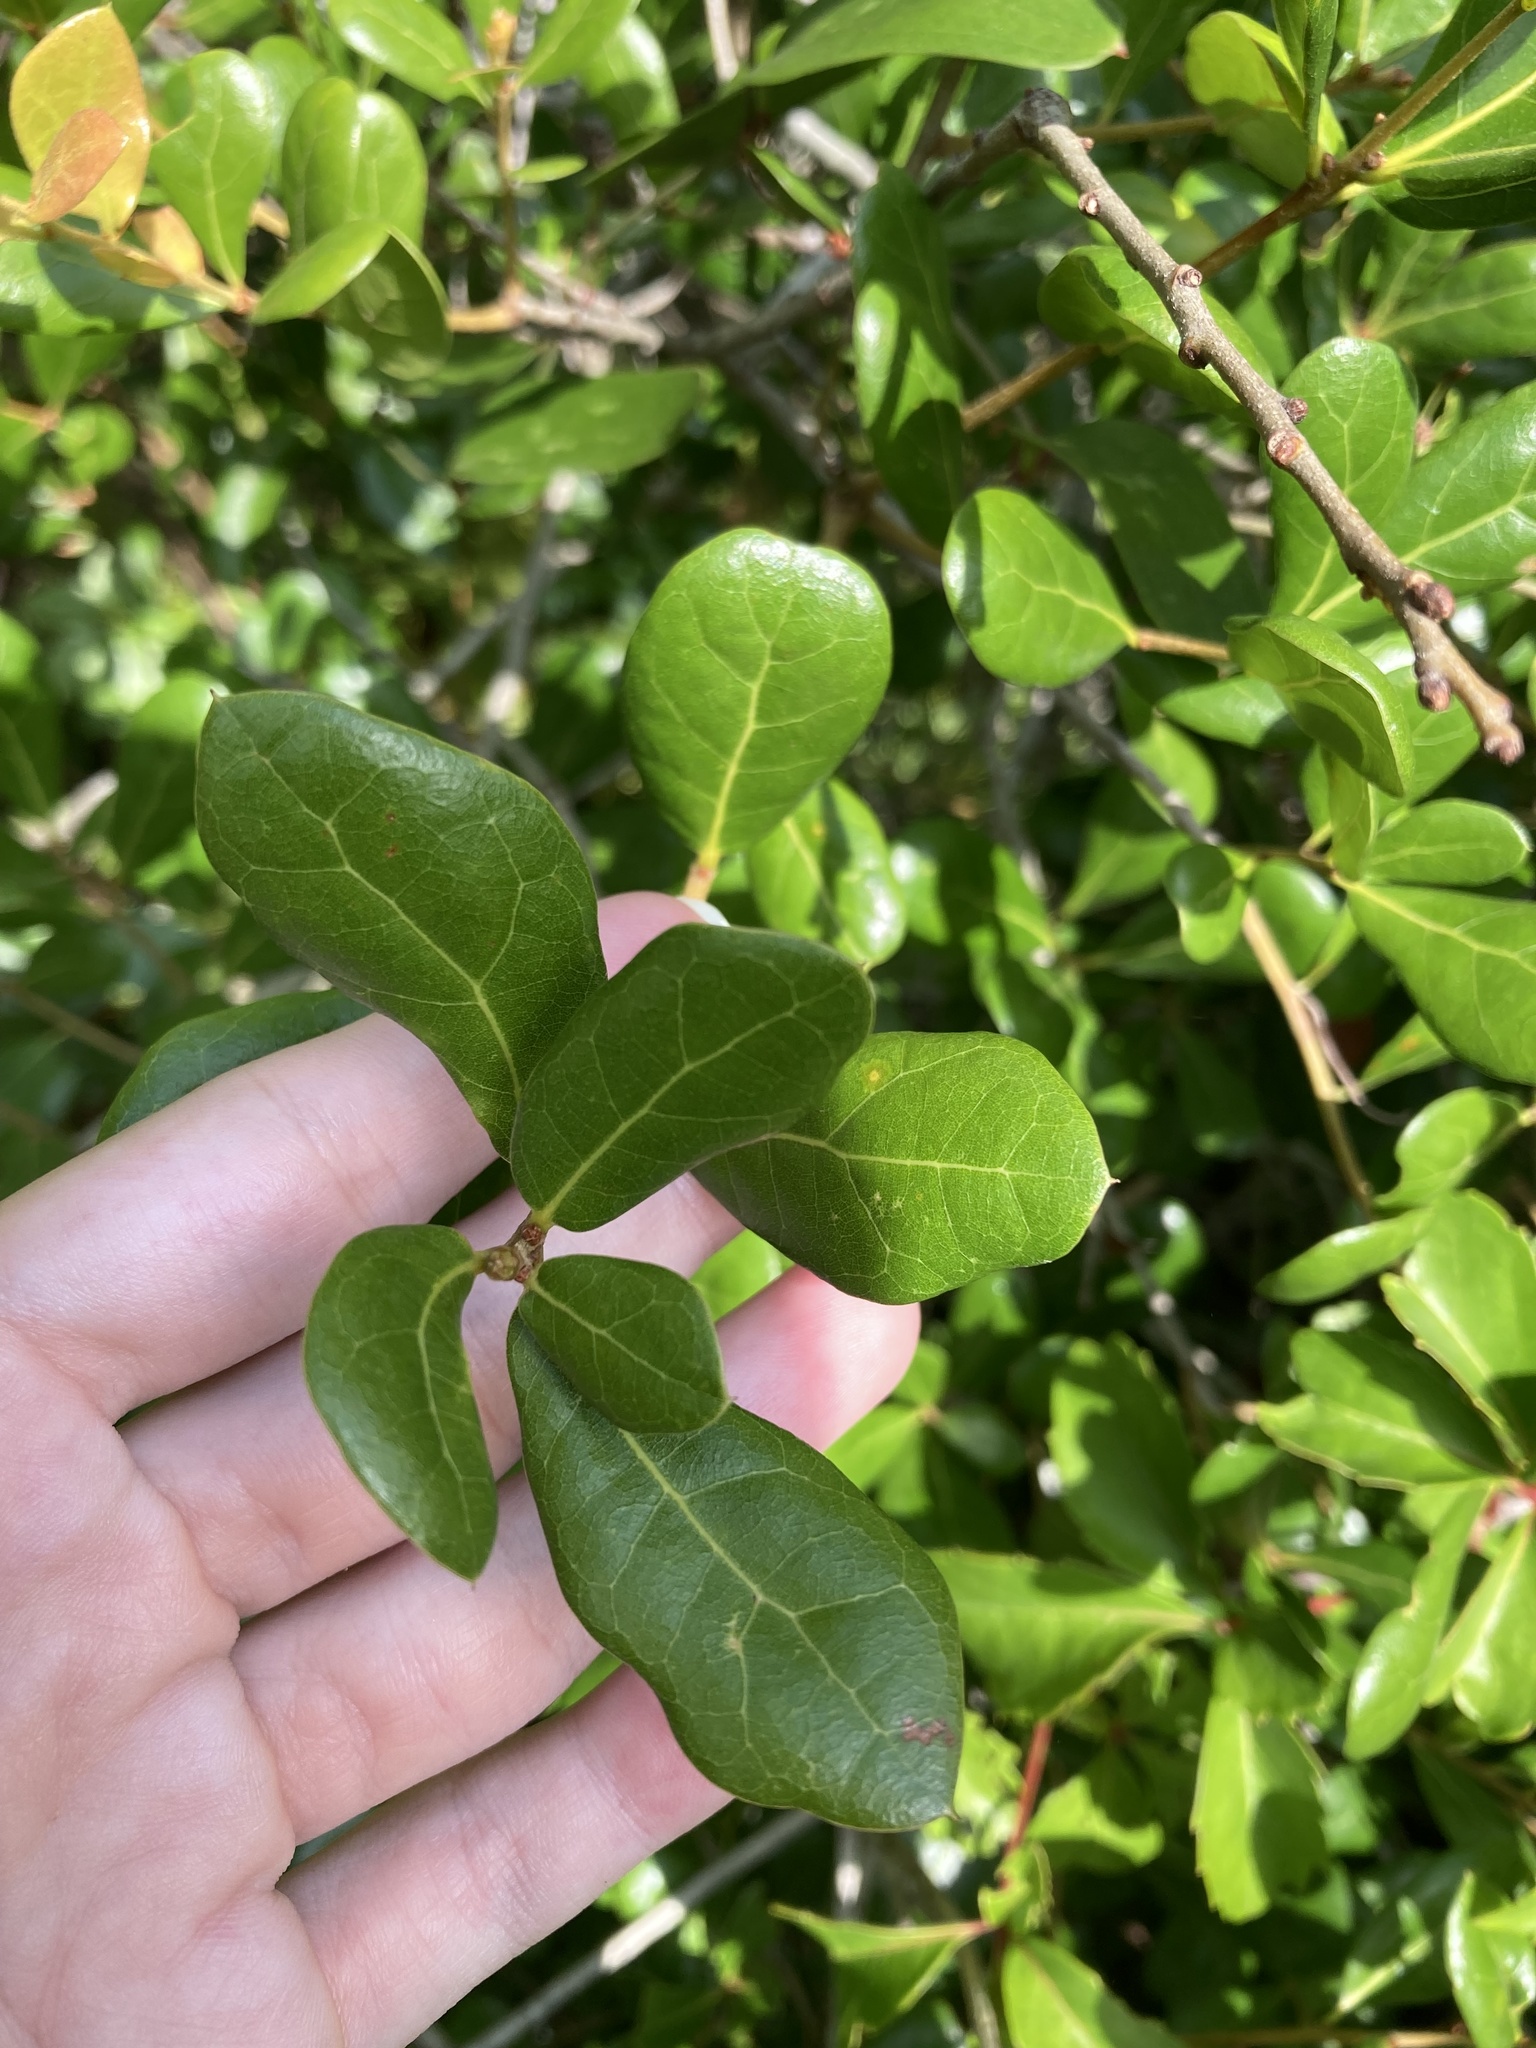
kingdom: Plantae
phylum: Tracheophyta
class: Magnoliopsida
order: Fagales
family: Fagaceae
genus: Quercus
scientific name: Quercus myrtifolia
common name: Myrtle oak
